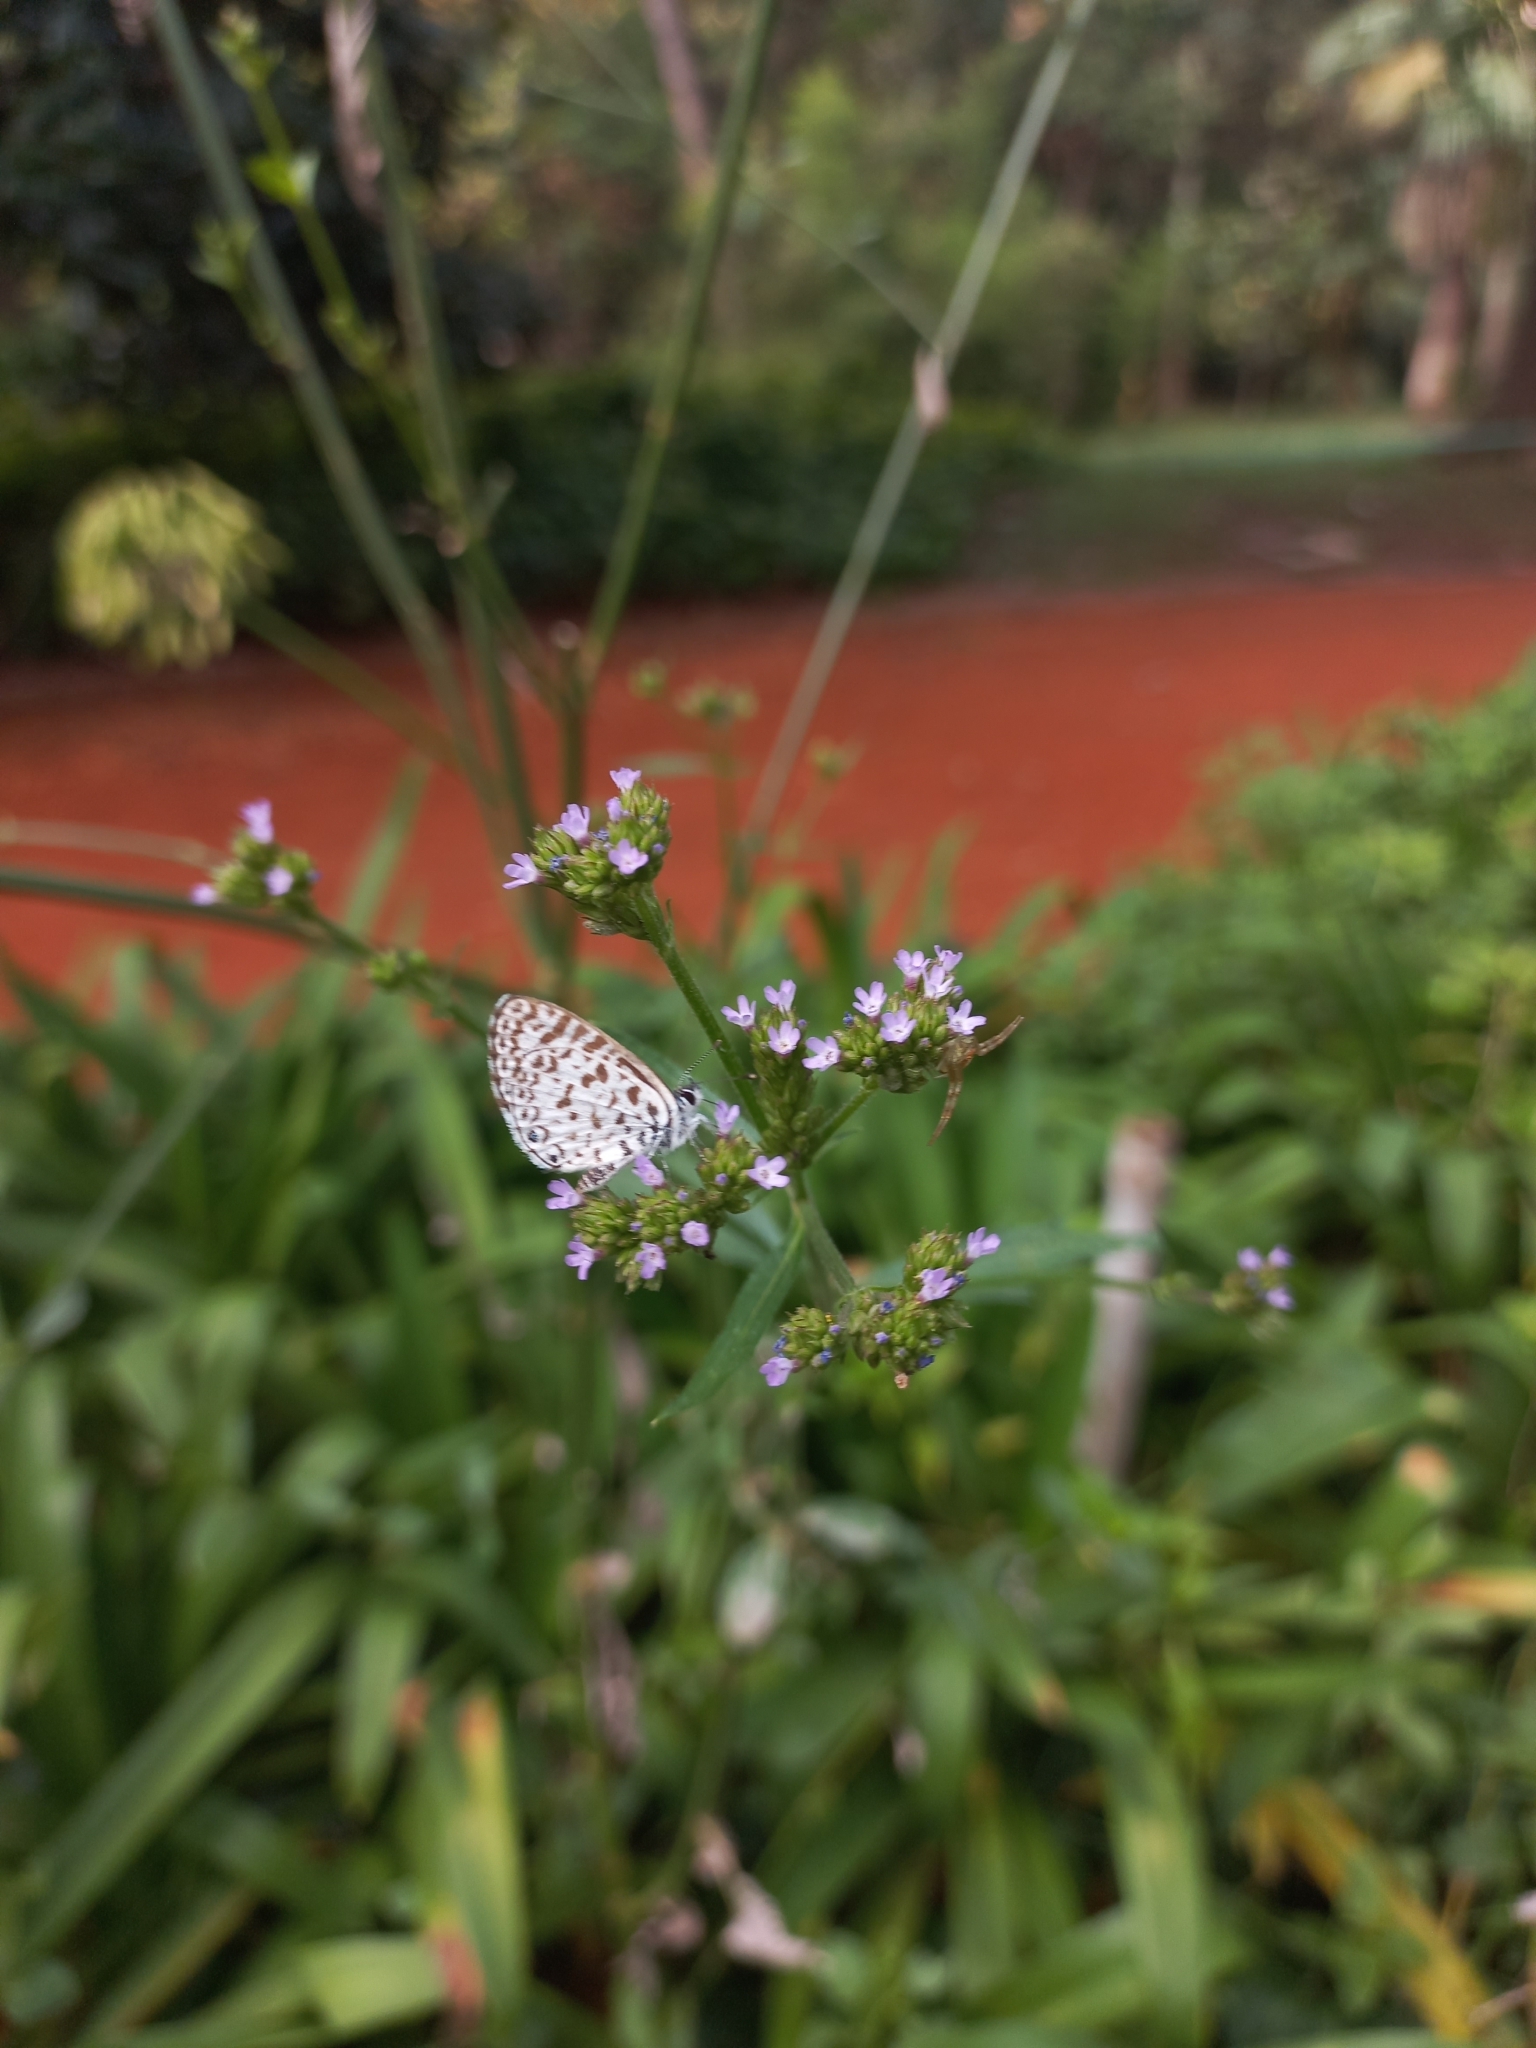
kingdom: Animalia
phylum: Arthropoda
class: Insecta
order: Lepidoptera
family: Lycaenidae
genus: Leptotes
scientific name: Leptotes cassius
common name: Cassius blue
